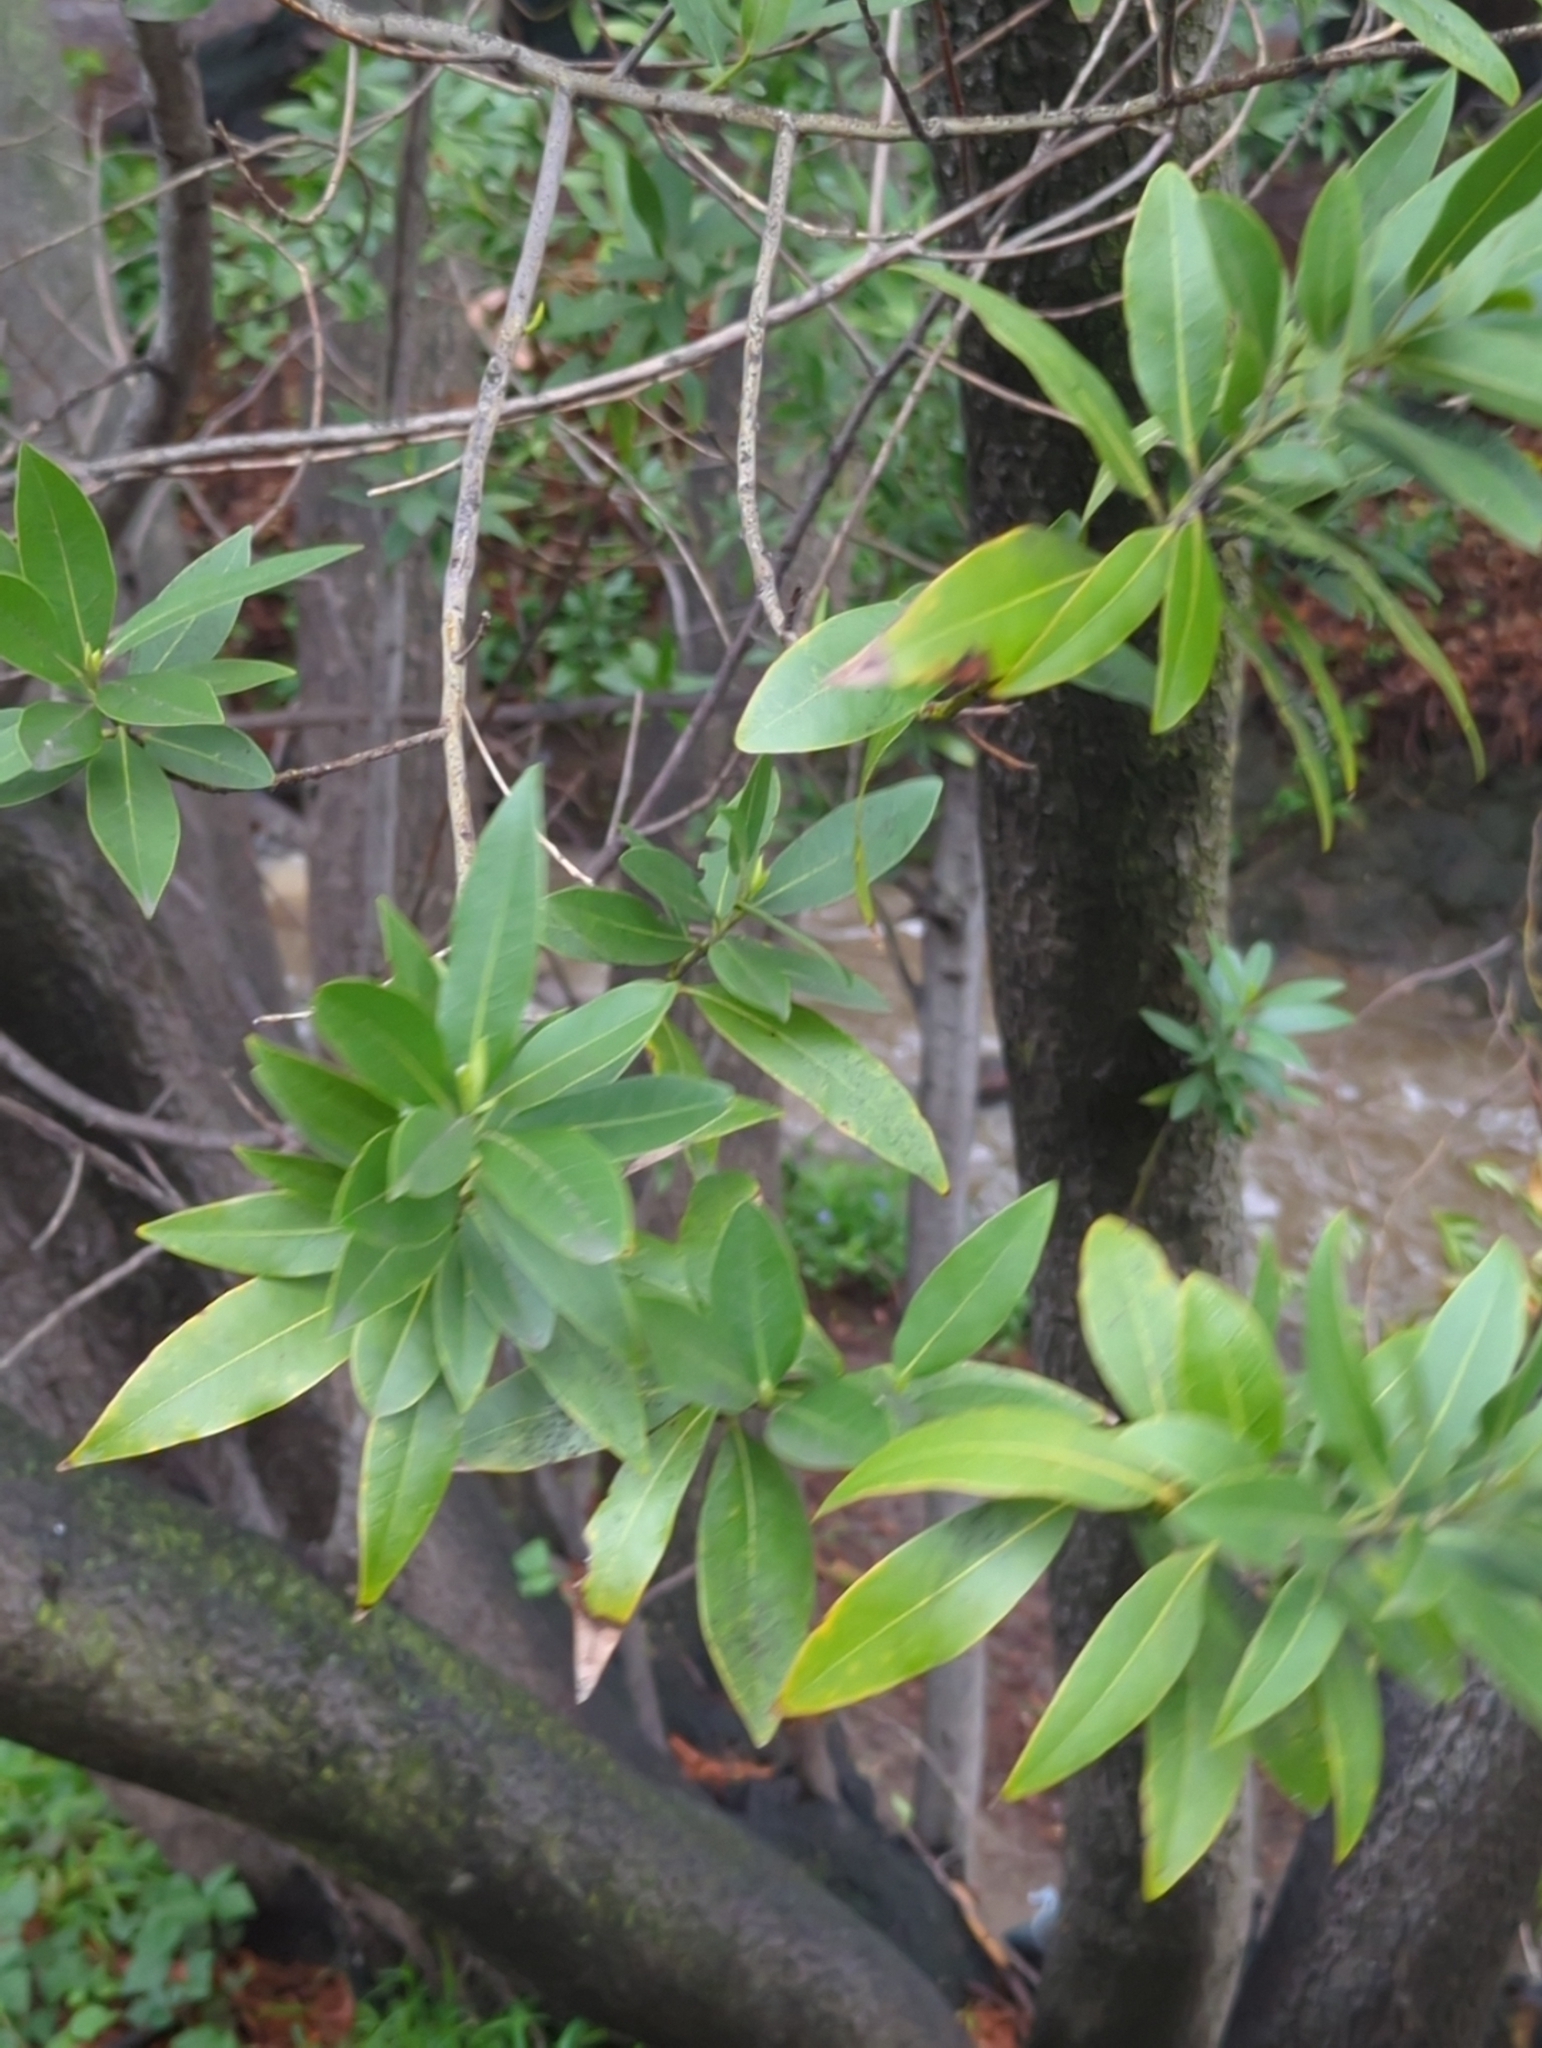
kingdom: Plantae
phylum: Tracheophyta
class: Magnoliopsida
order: Laurales
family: Lauraceae
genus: Umbellularia
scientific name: Umbellularia californica
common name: California bay
